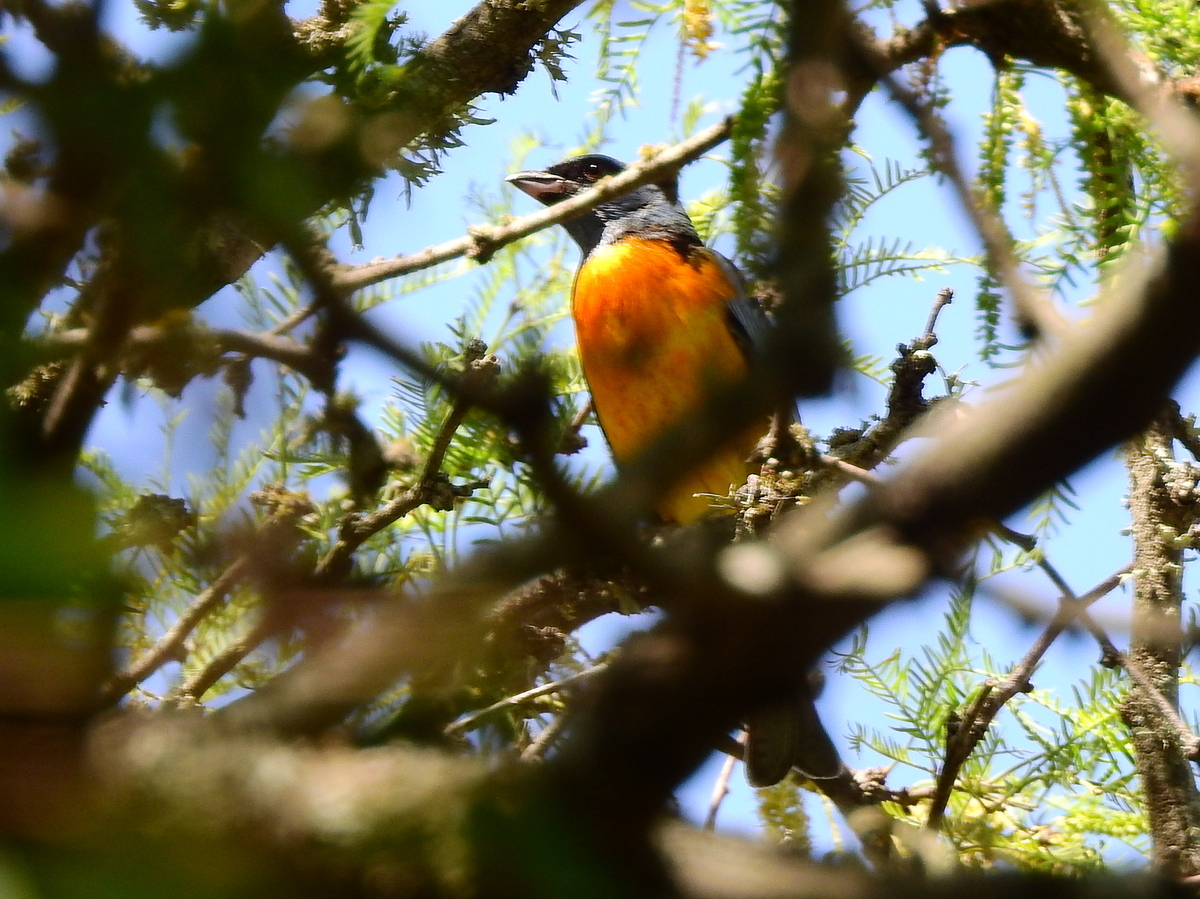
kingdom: Animalia
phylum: Chordata
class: Aves
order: Passeriformes
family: Thraupidae
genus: Rauenia
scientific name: Rauenia bonariensis
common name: Blue-and-yellow tanager
